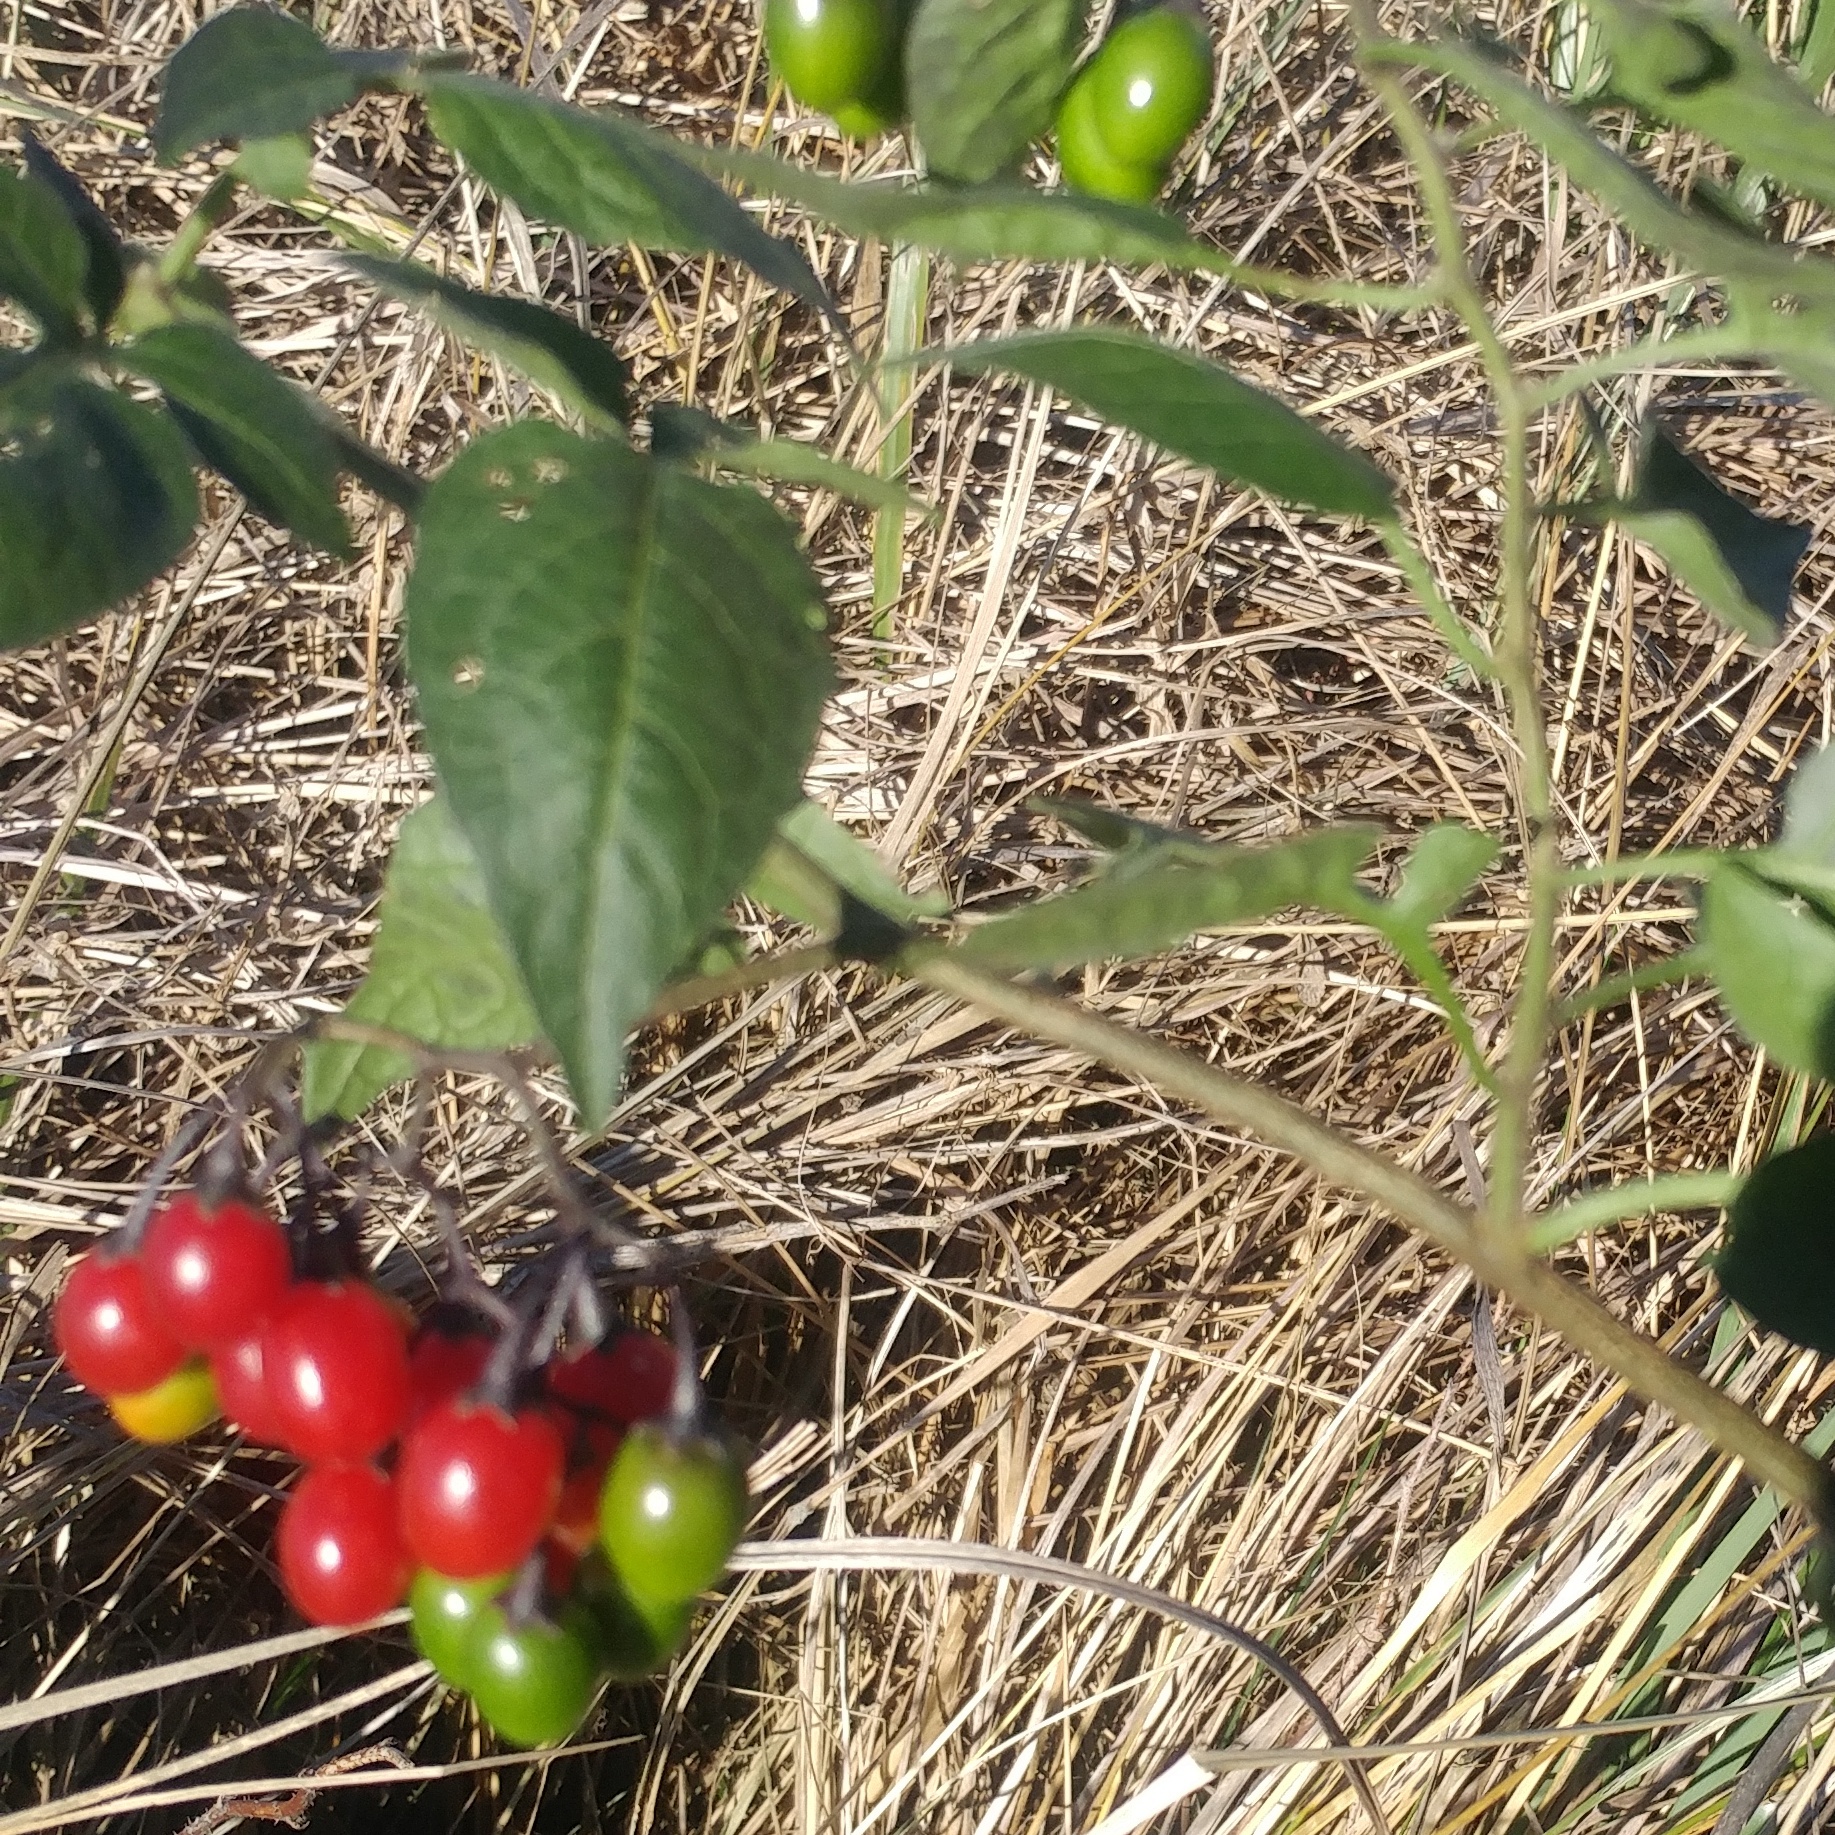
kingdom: Plantae
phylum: Tracheophyta
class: Magnoliopsida
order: Solanales
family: Solanaceae
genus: Solanum
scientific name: Solanum dulcamara
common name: Climbing nightshade
